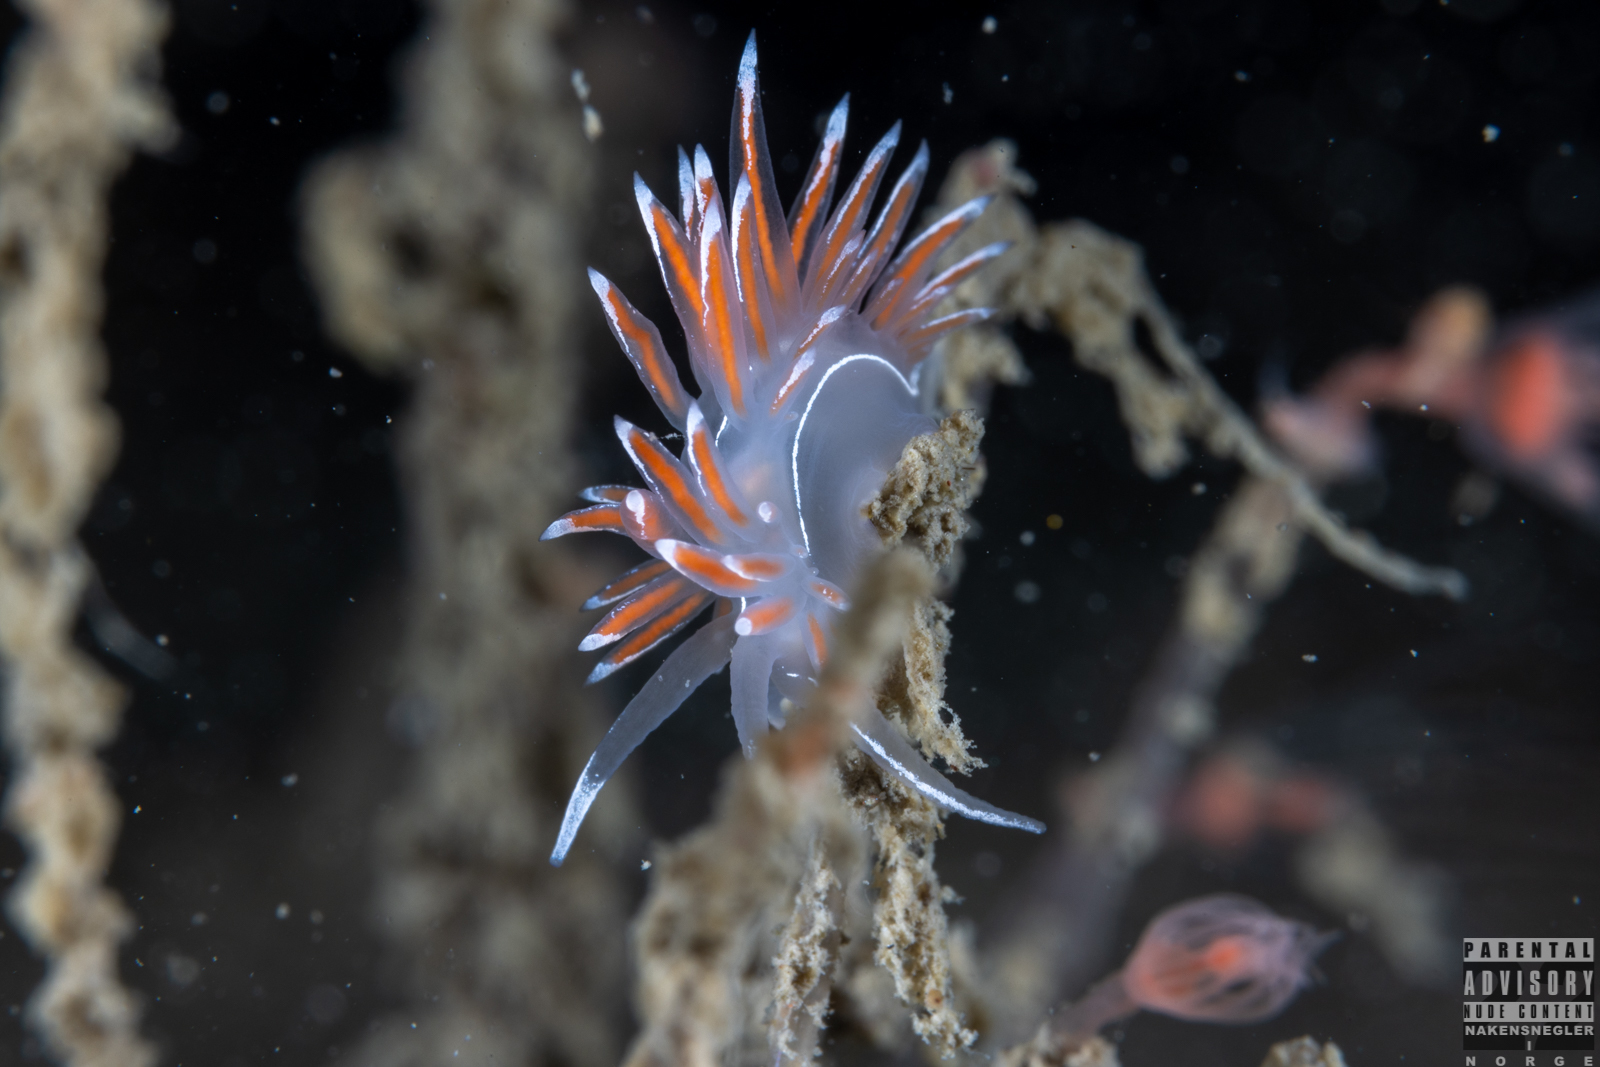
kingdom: Animalia
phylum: Mollusca
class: Gastropoda
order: Nudibranchia
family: Coryphellidae
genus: Coryphella
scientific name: Coryphella lineata
